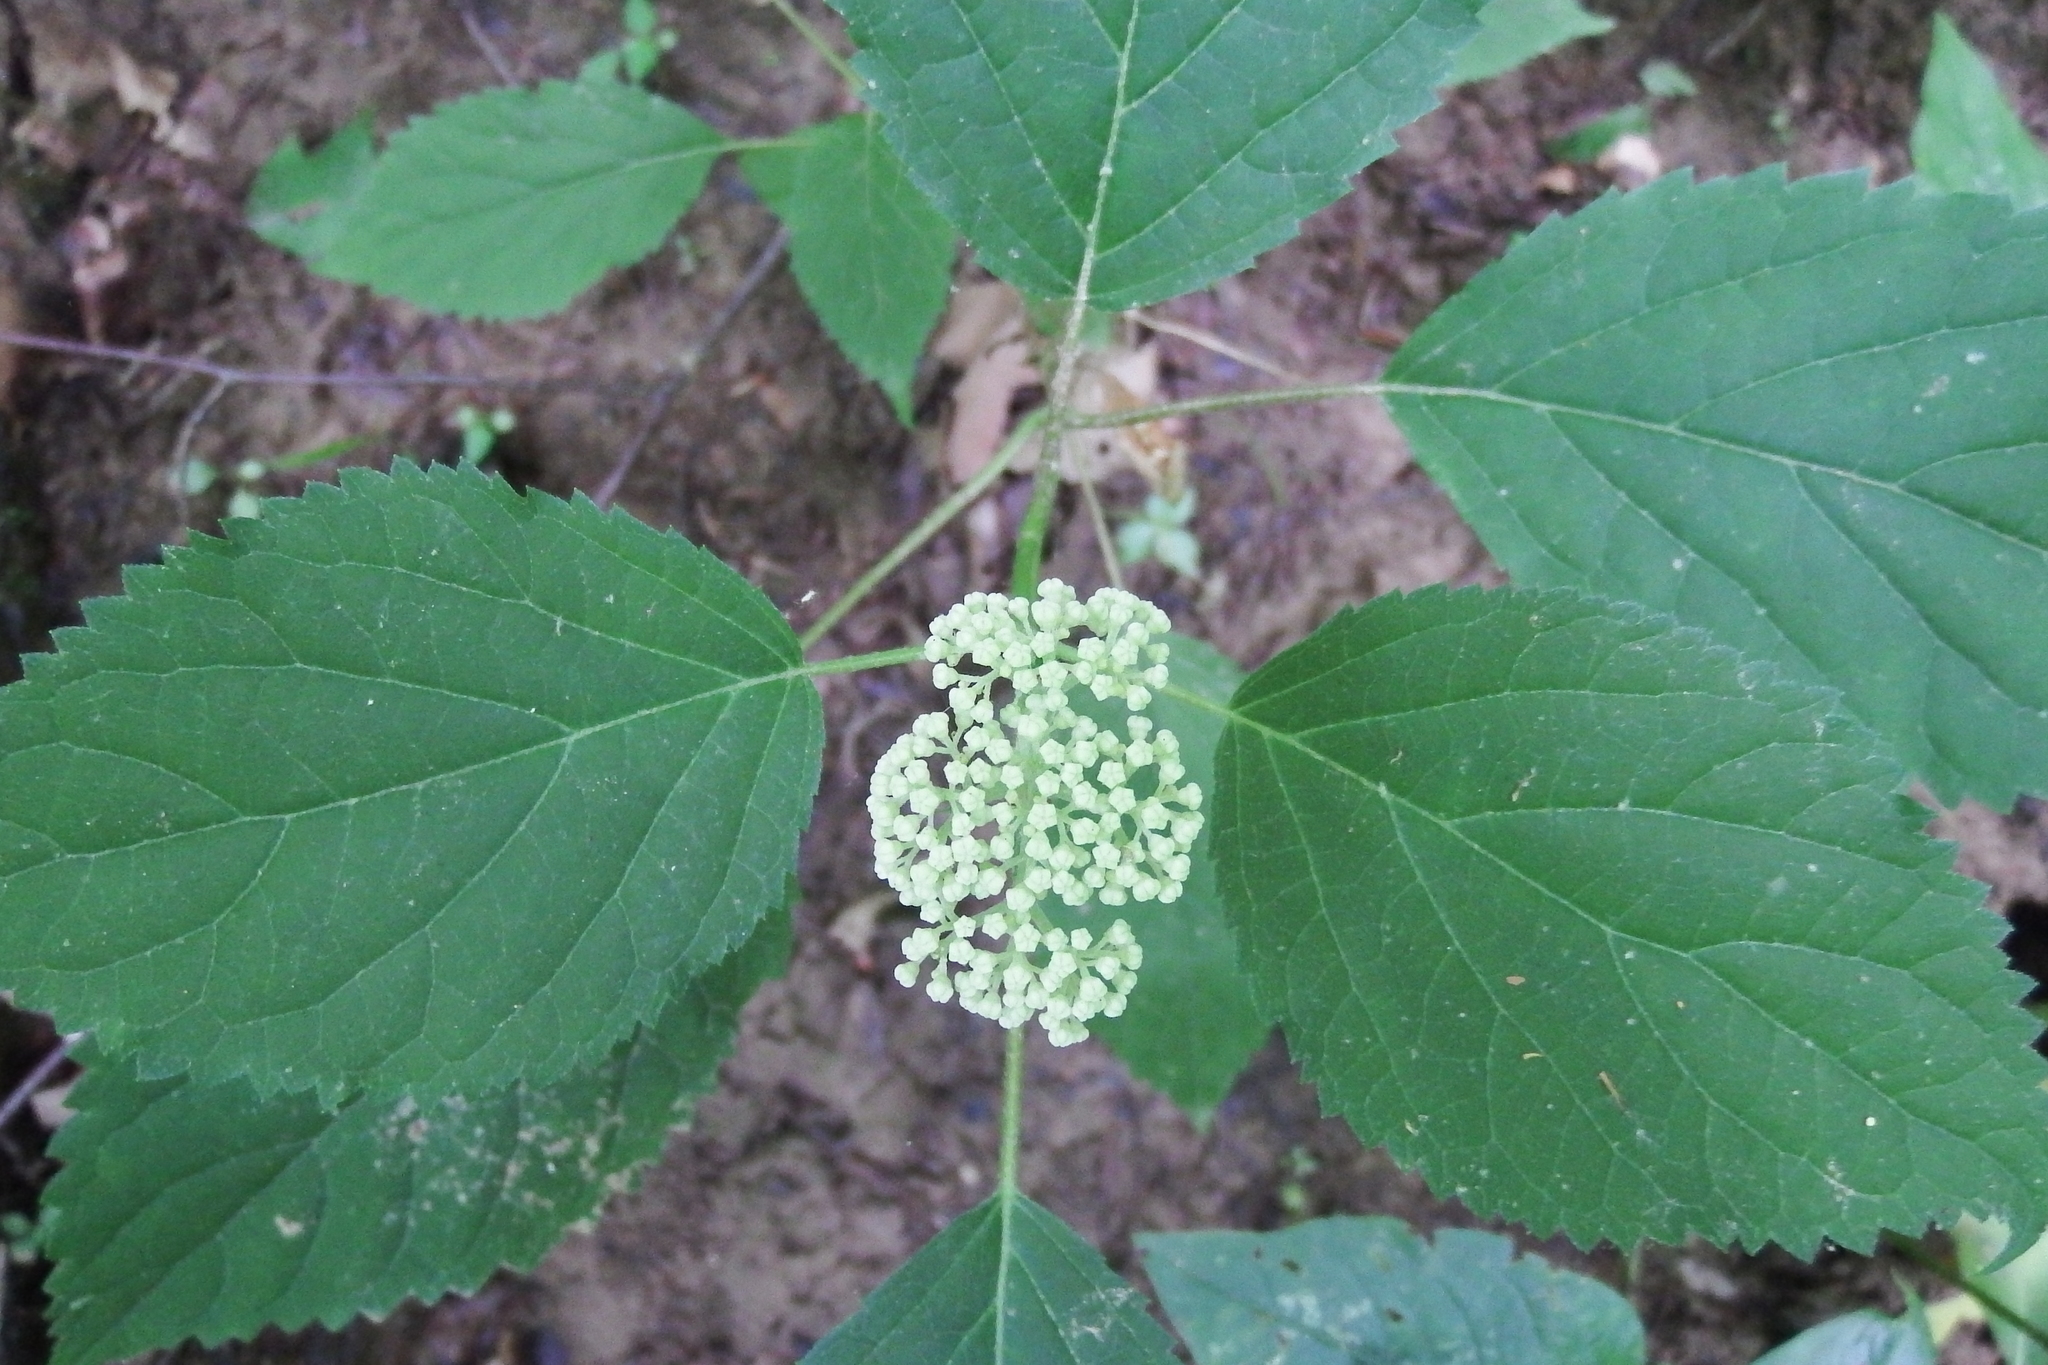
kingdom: Plantae
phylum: Tracheophyta
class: Magnoliopsida
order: Cornales
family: Hydrangeaceae
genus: Hydrangea
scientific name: Hydrangea arborescens
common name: Sevenbark
